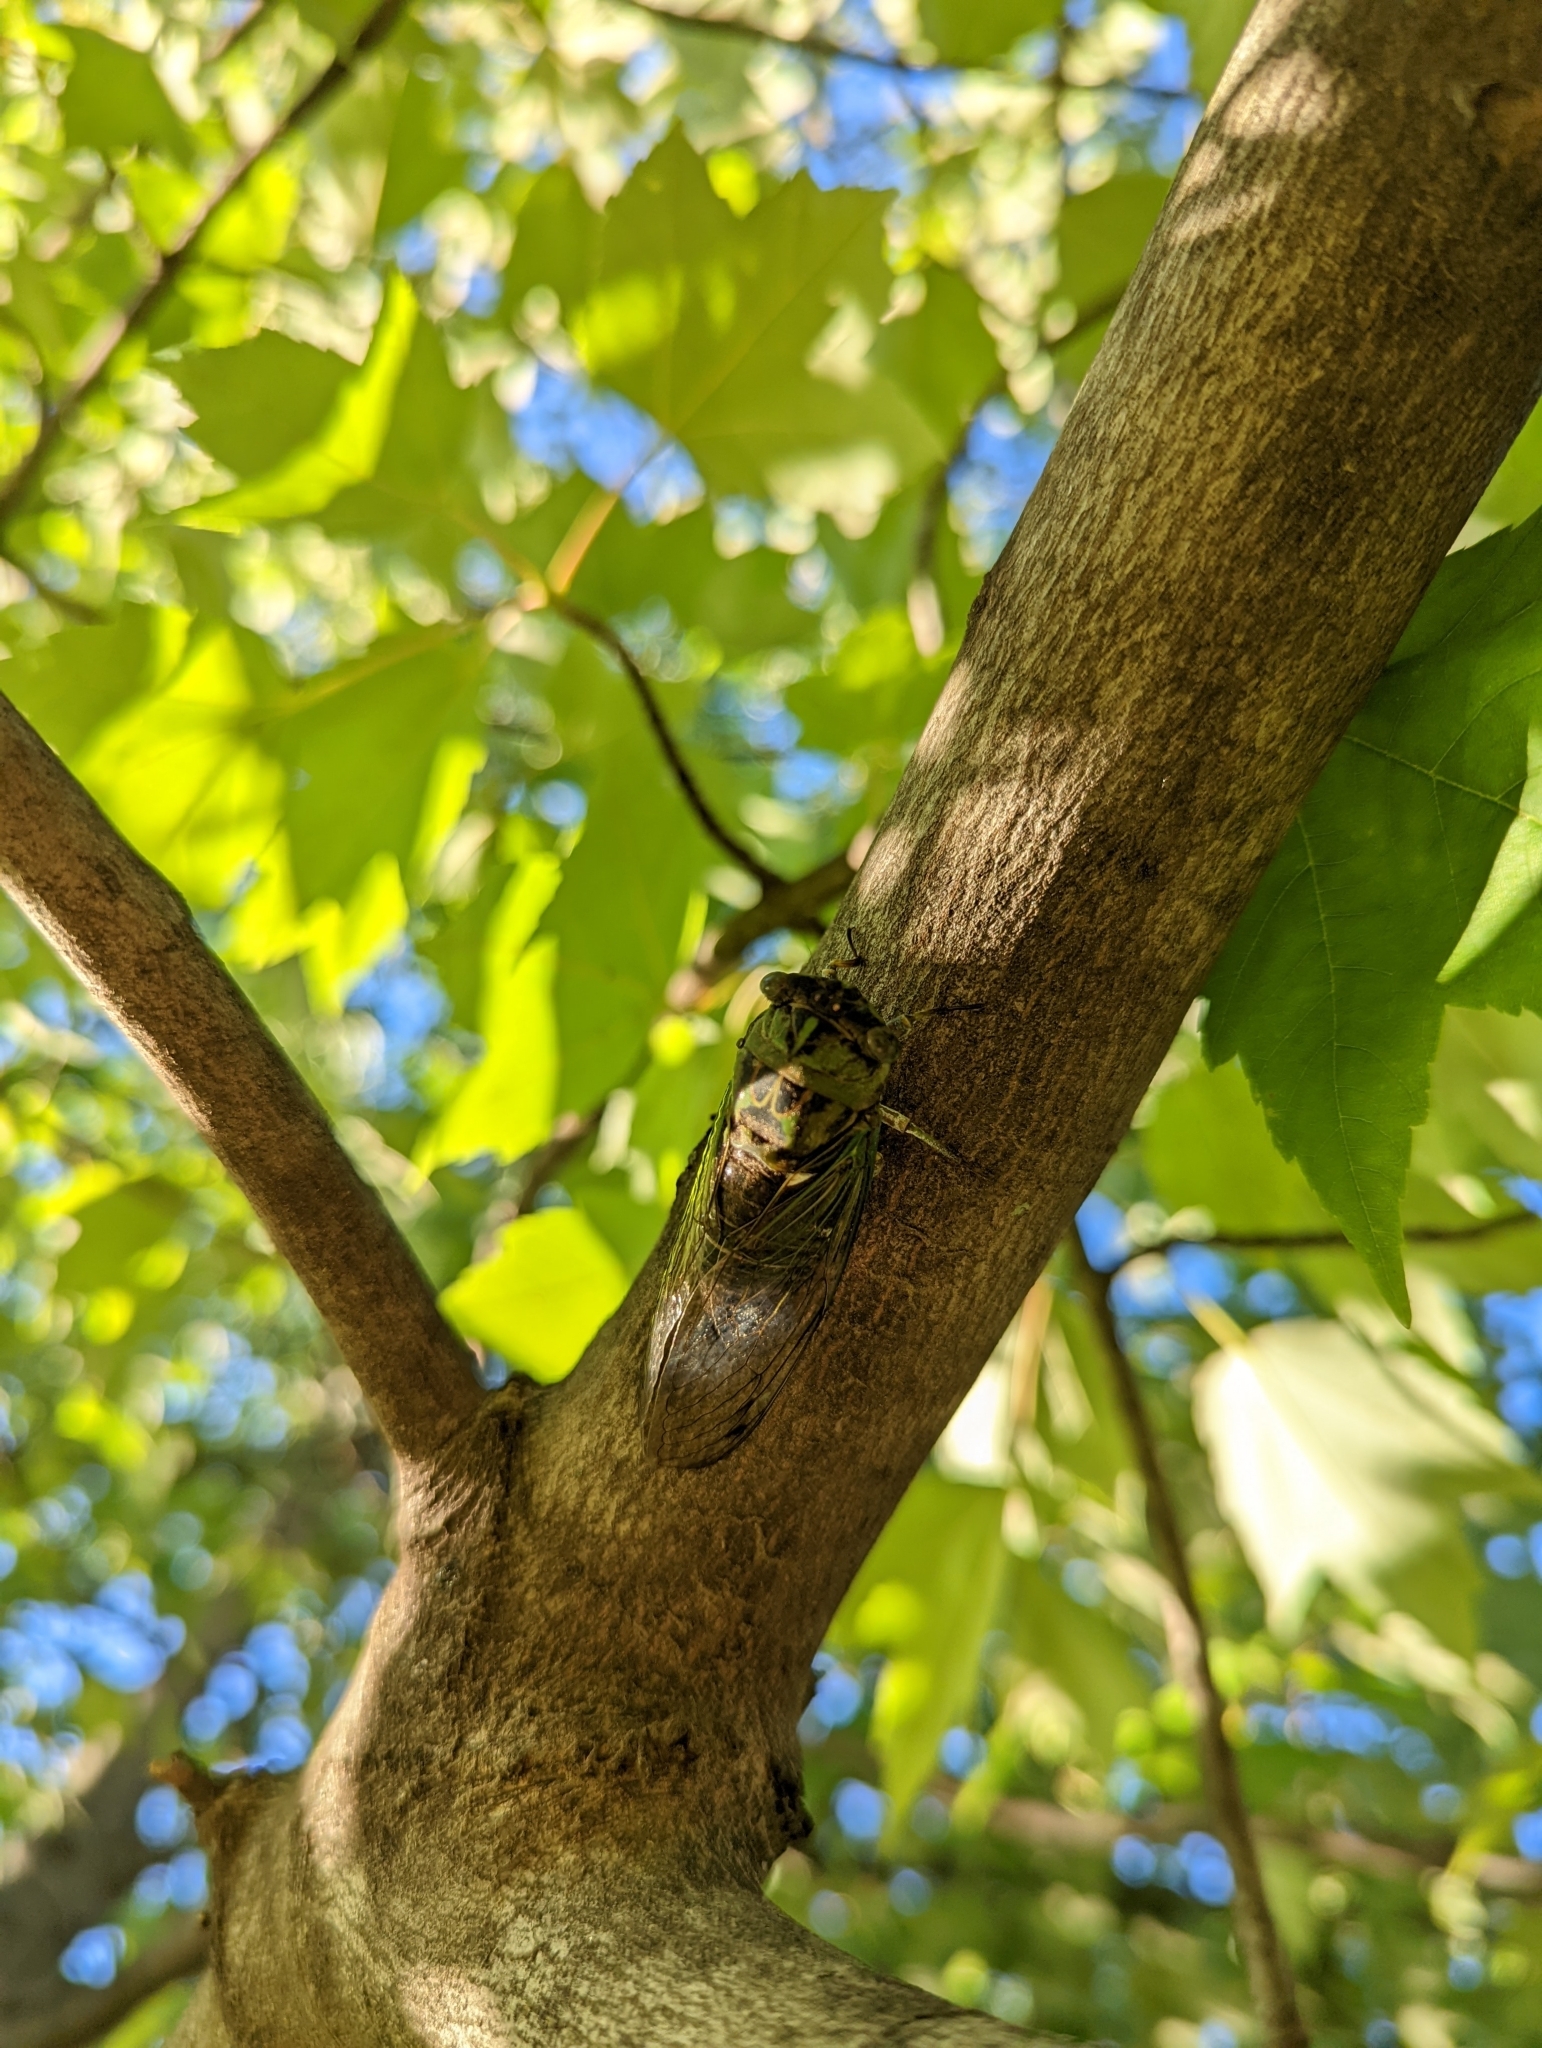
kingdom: Animalia
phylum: Arthropoda
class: Insecta
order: Hemiptera
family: Cicadidae
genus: Neotibicen
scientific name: Neotibicen pruinosus
